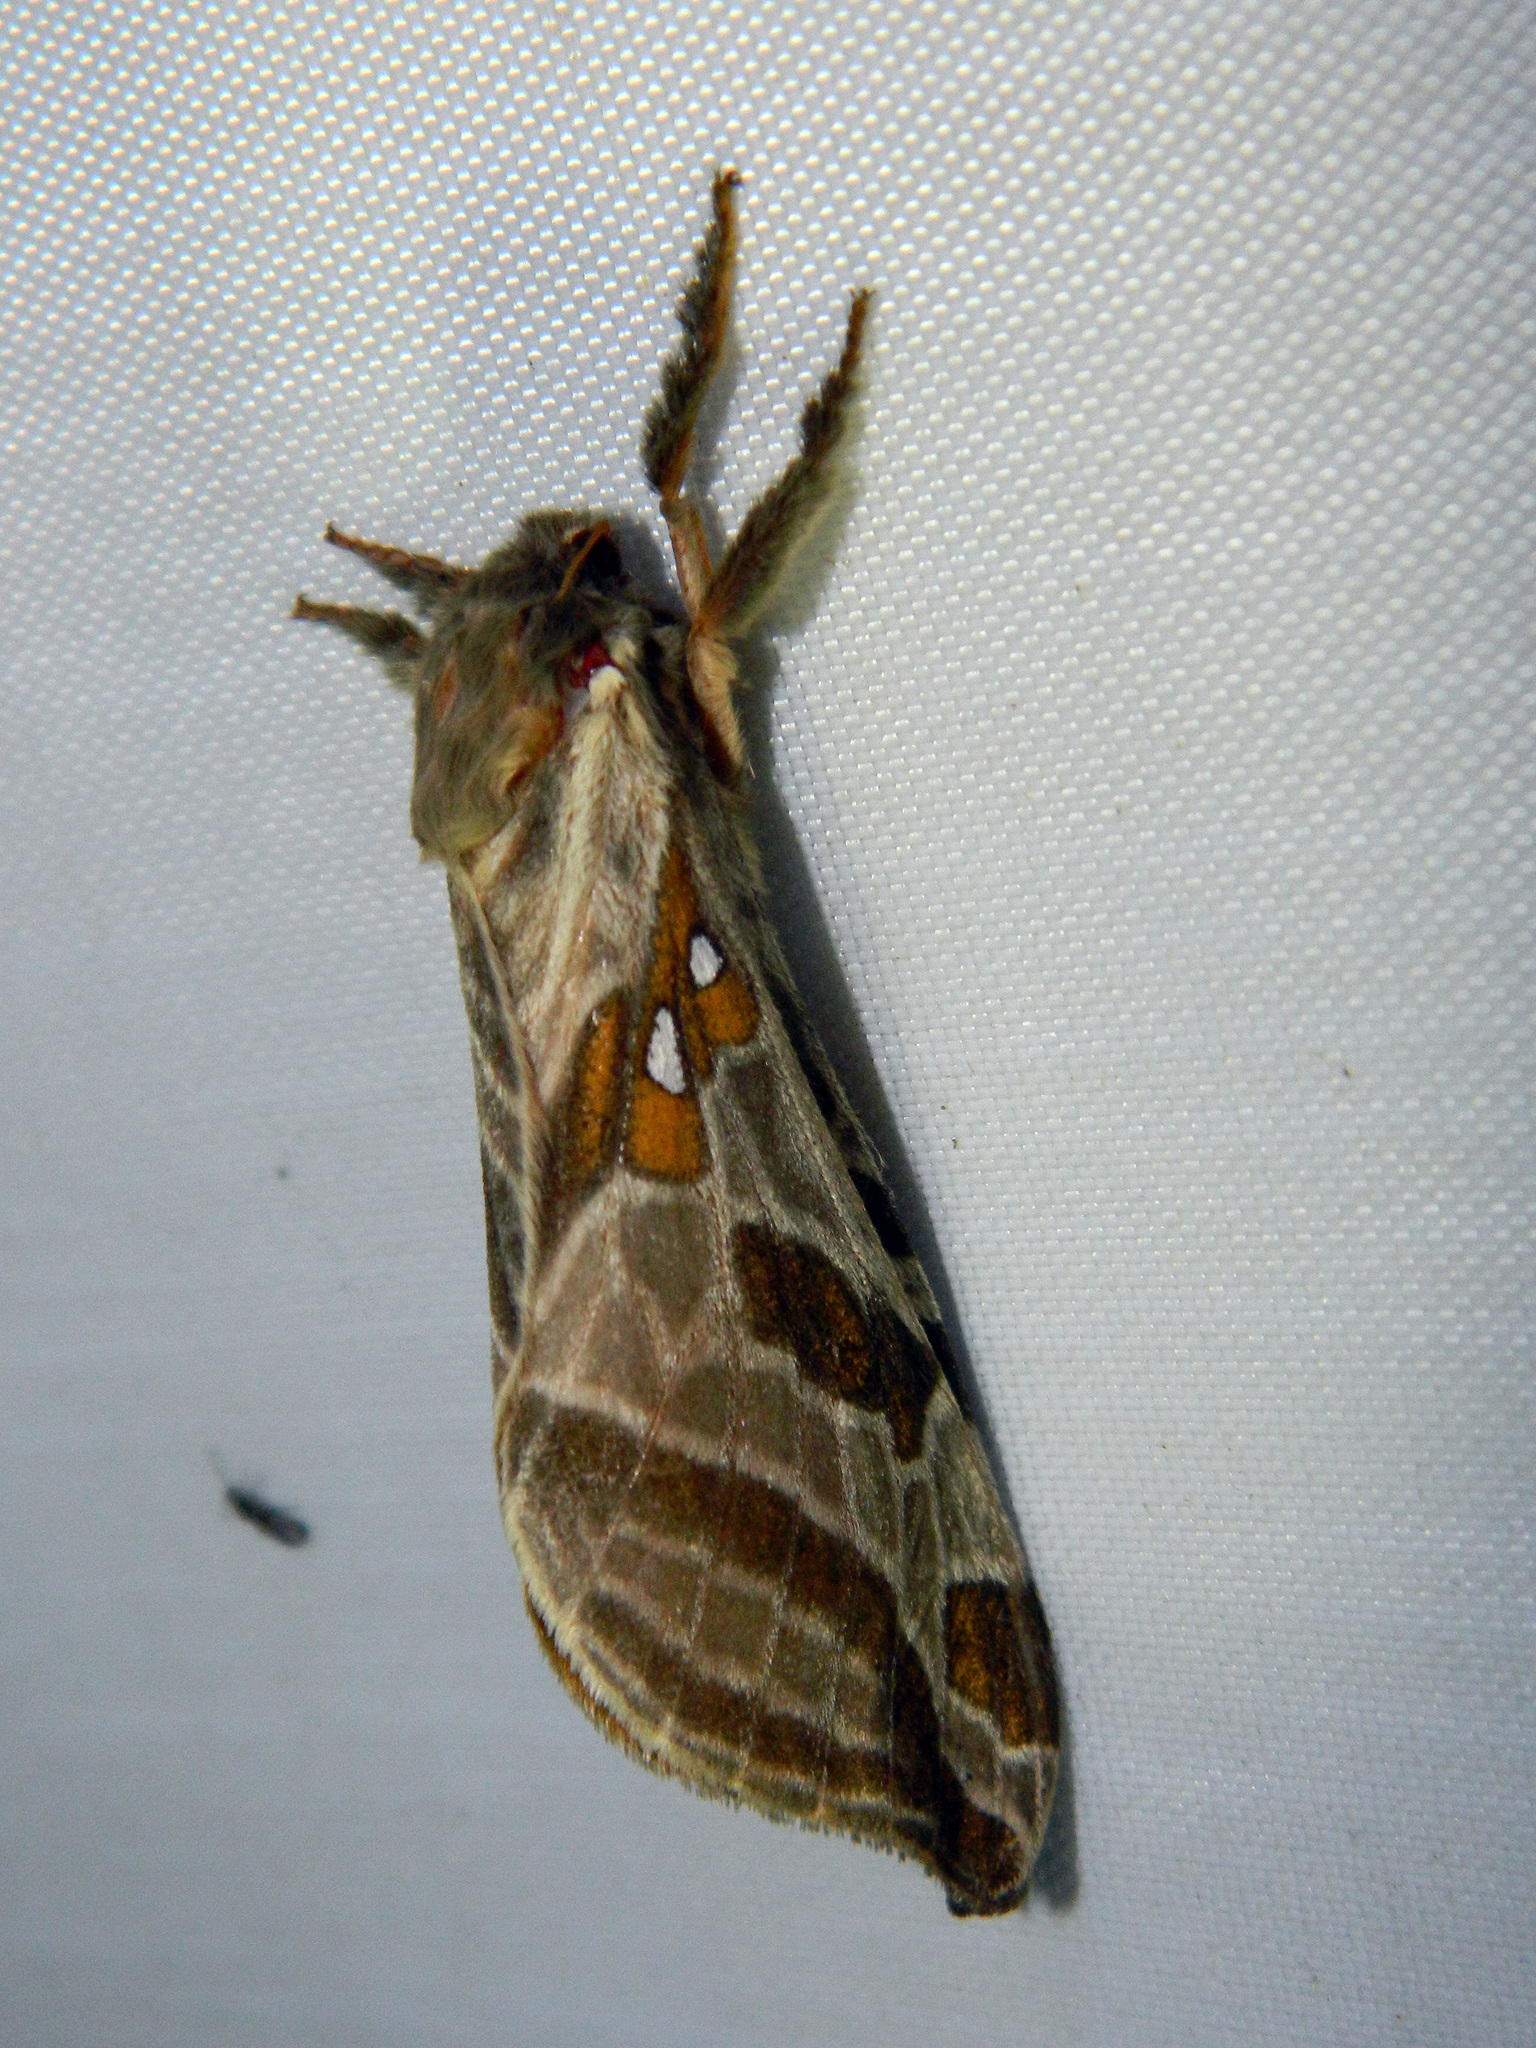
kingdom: Animalia
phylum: Arthropoda
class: Insecta
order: Lepidoptera
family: Hepialidae
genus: Sthenopis
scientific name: Sthenopis argenteomaculatus
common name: Silver-spotted ghost moth
